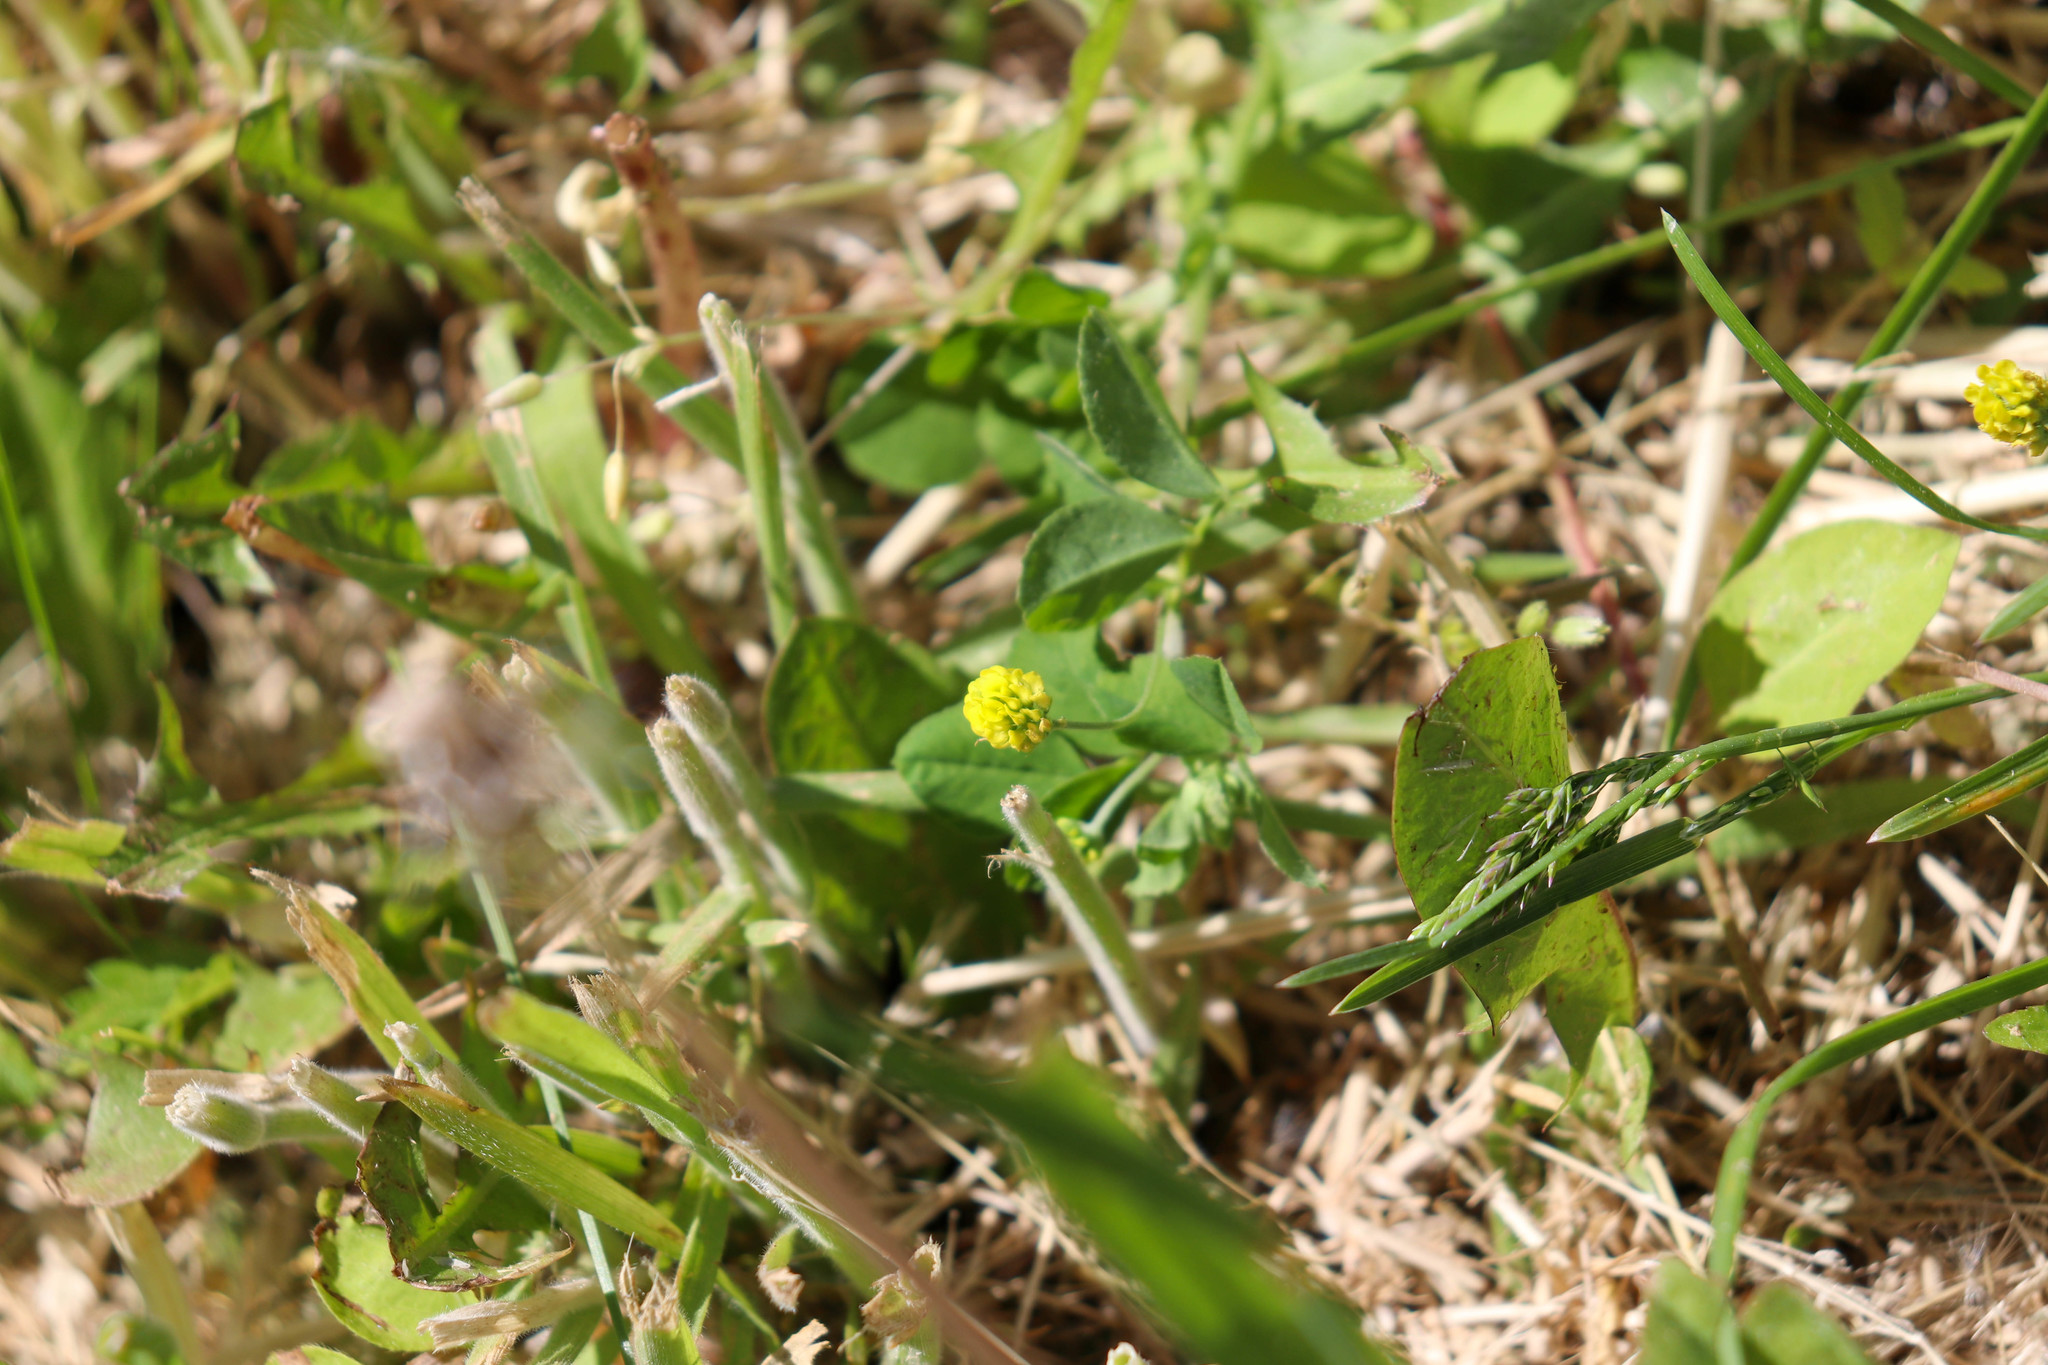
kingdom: Plantae
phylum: Tracheophyta
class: Magnoliopsida
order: Fabales
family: Fabaceae
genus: Medicago
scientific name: Medicago lupulina
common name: Black medick
